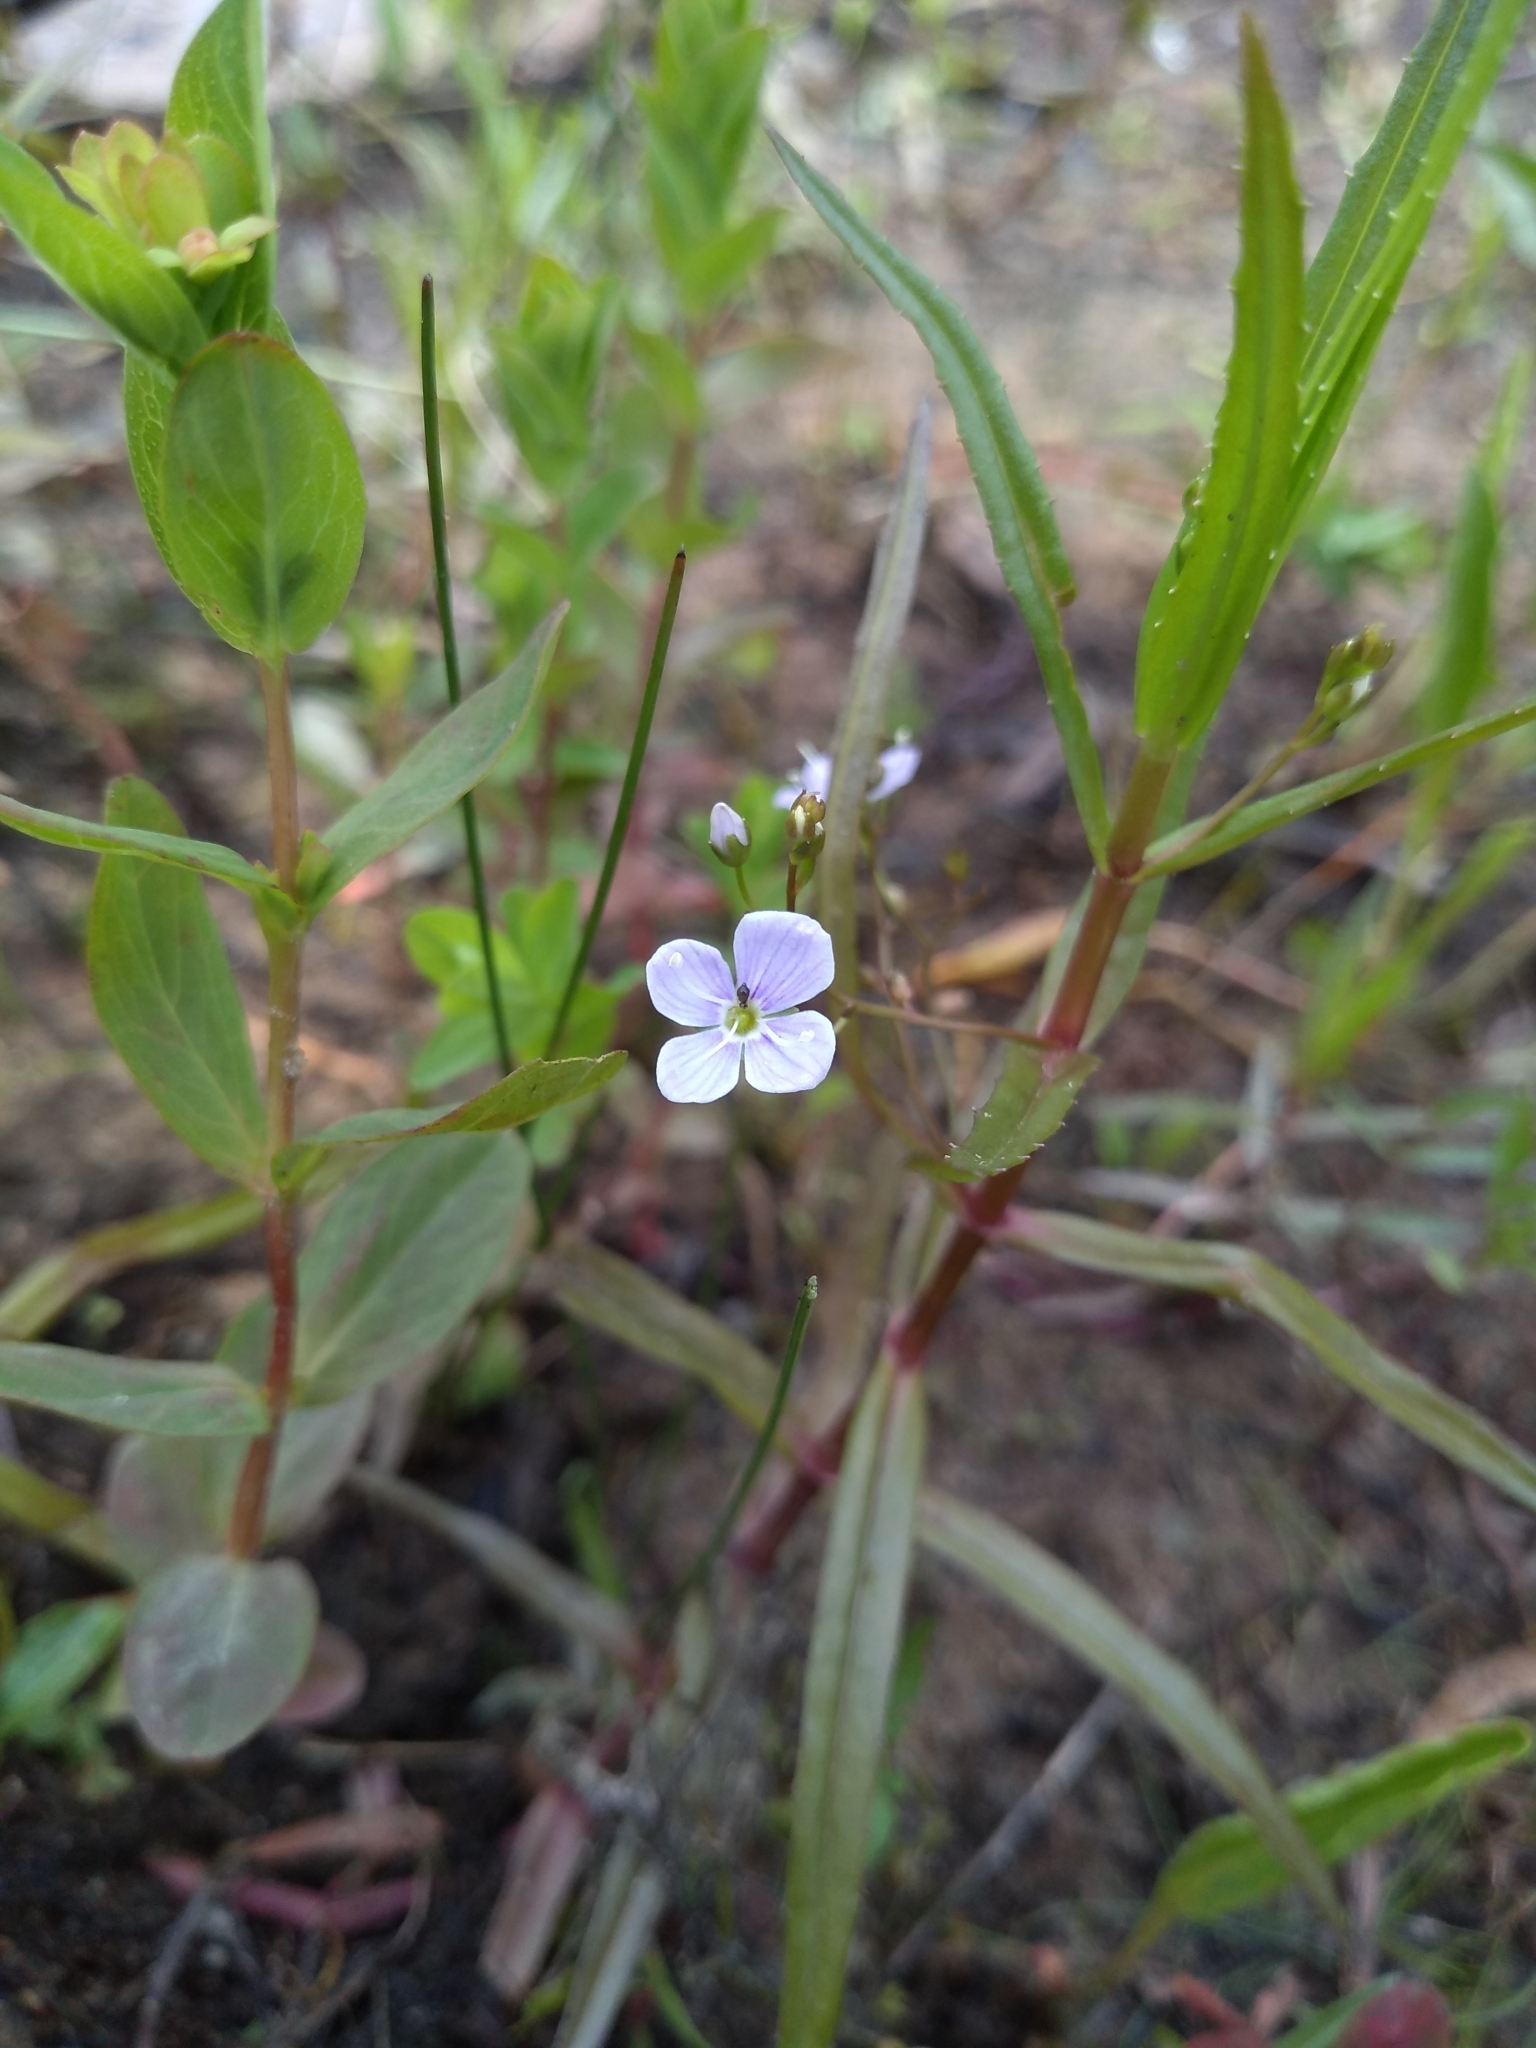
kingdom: Plantae
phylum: Tracheophyta
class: Magnoliopsida
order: Lamiales
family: Plantaginaceae
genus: Veronica
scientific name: Veronica scutellata
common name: Marsh speedwell
